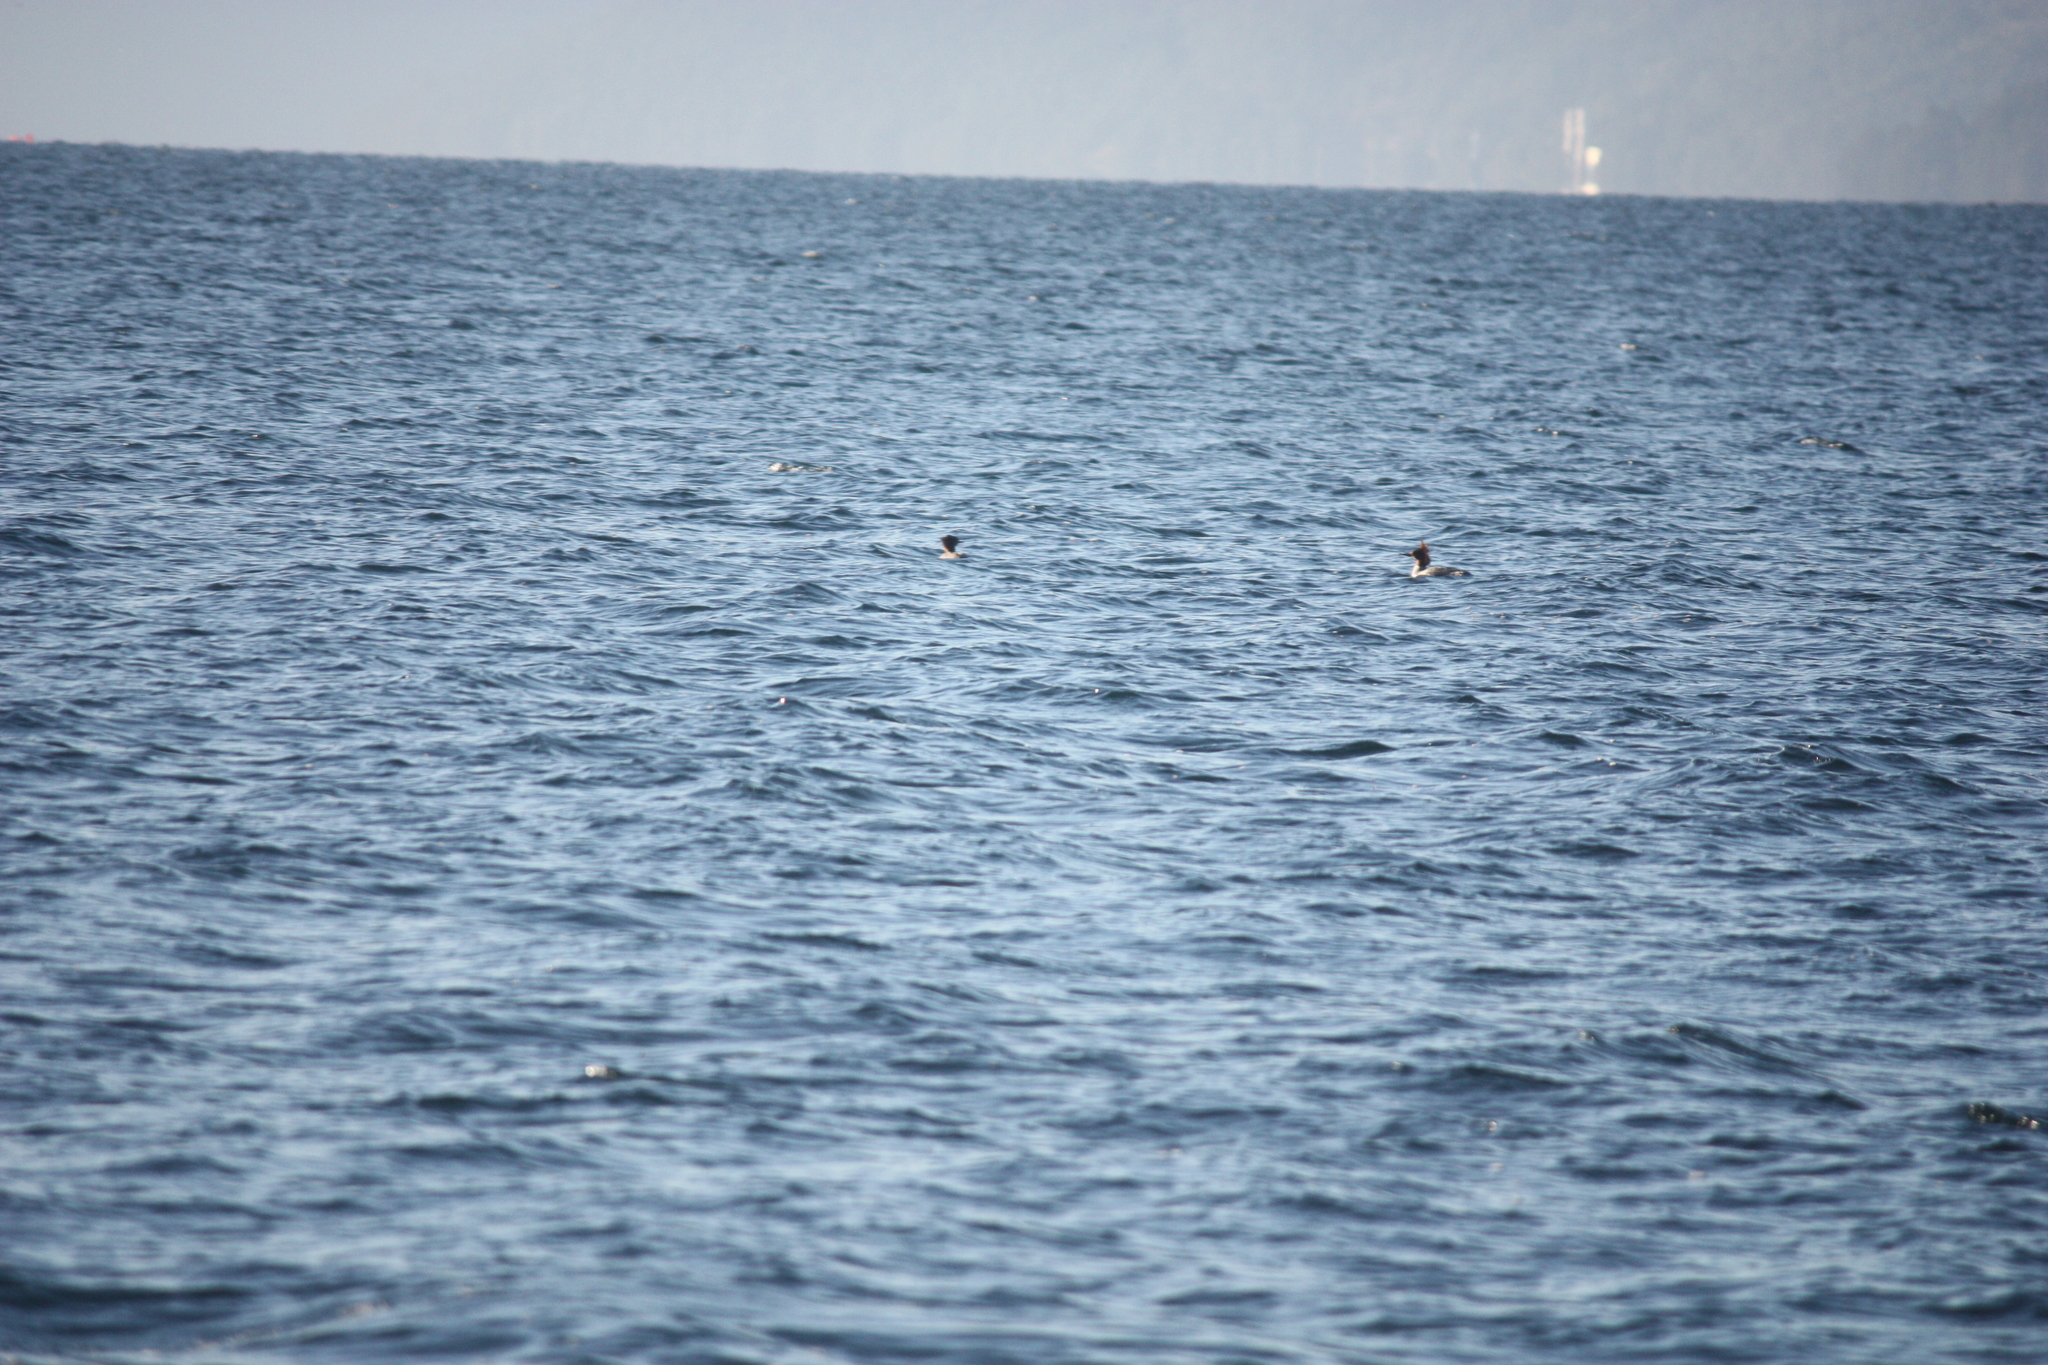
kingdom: Animalia
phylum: Chordata
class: Aves
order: Anseriformes
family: Anatidae
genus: Mergus
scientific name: Mergus merganser
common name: Common merganser
